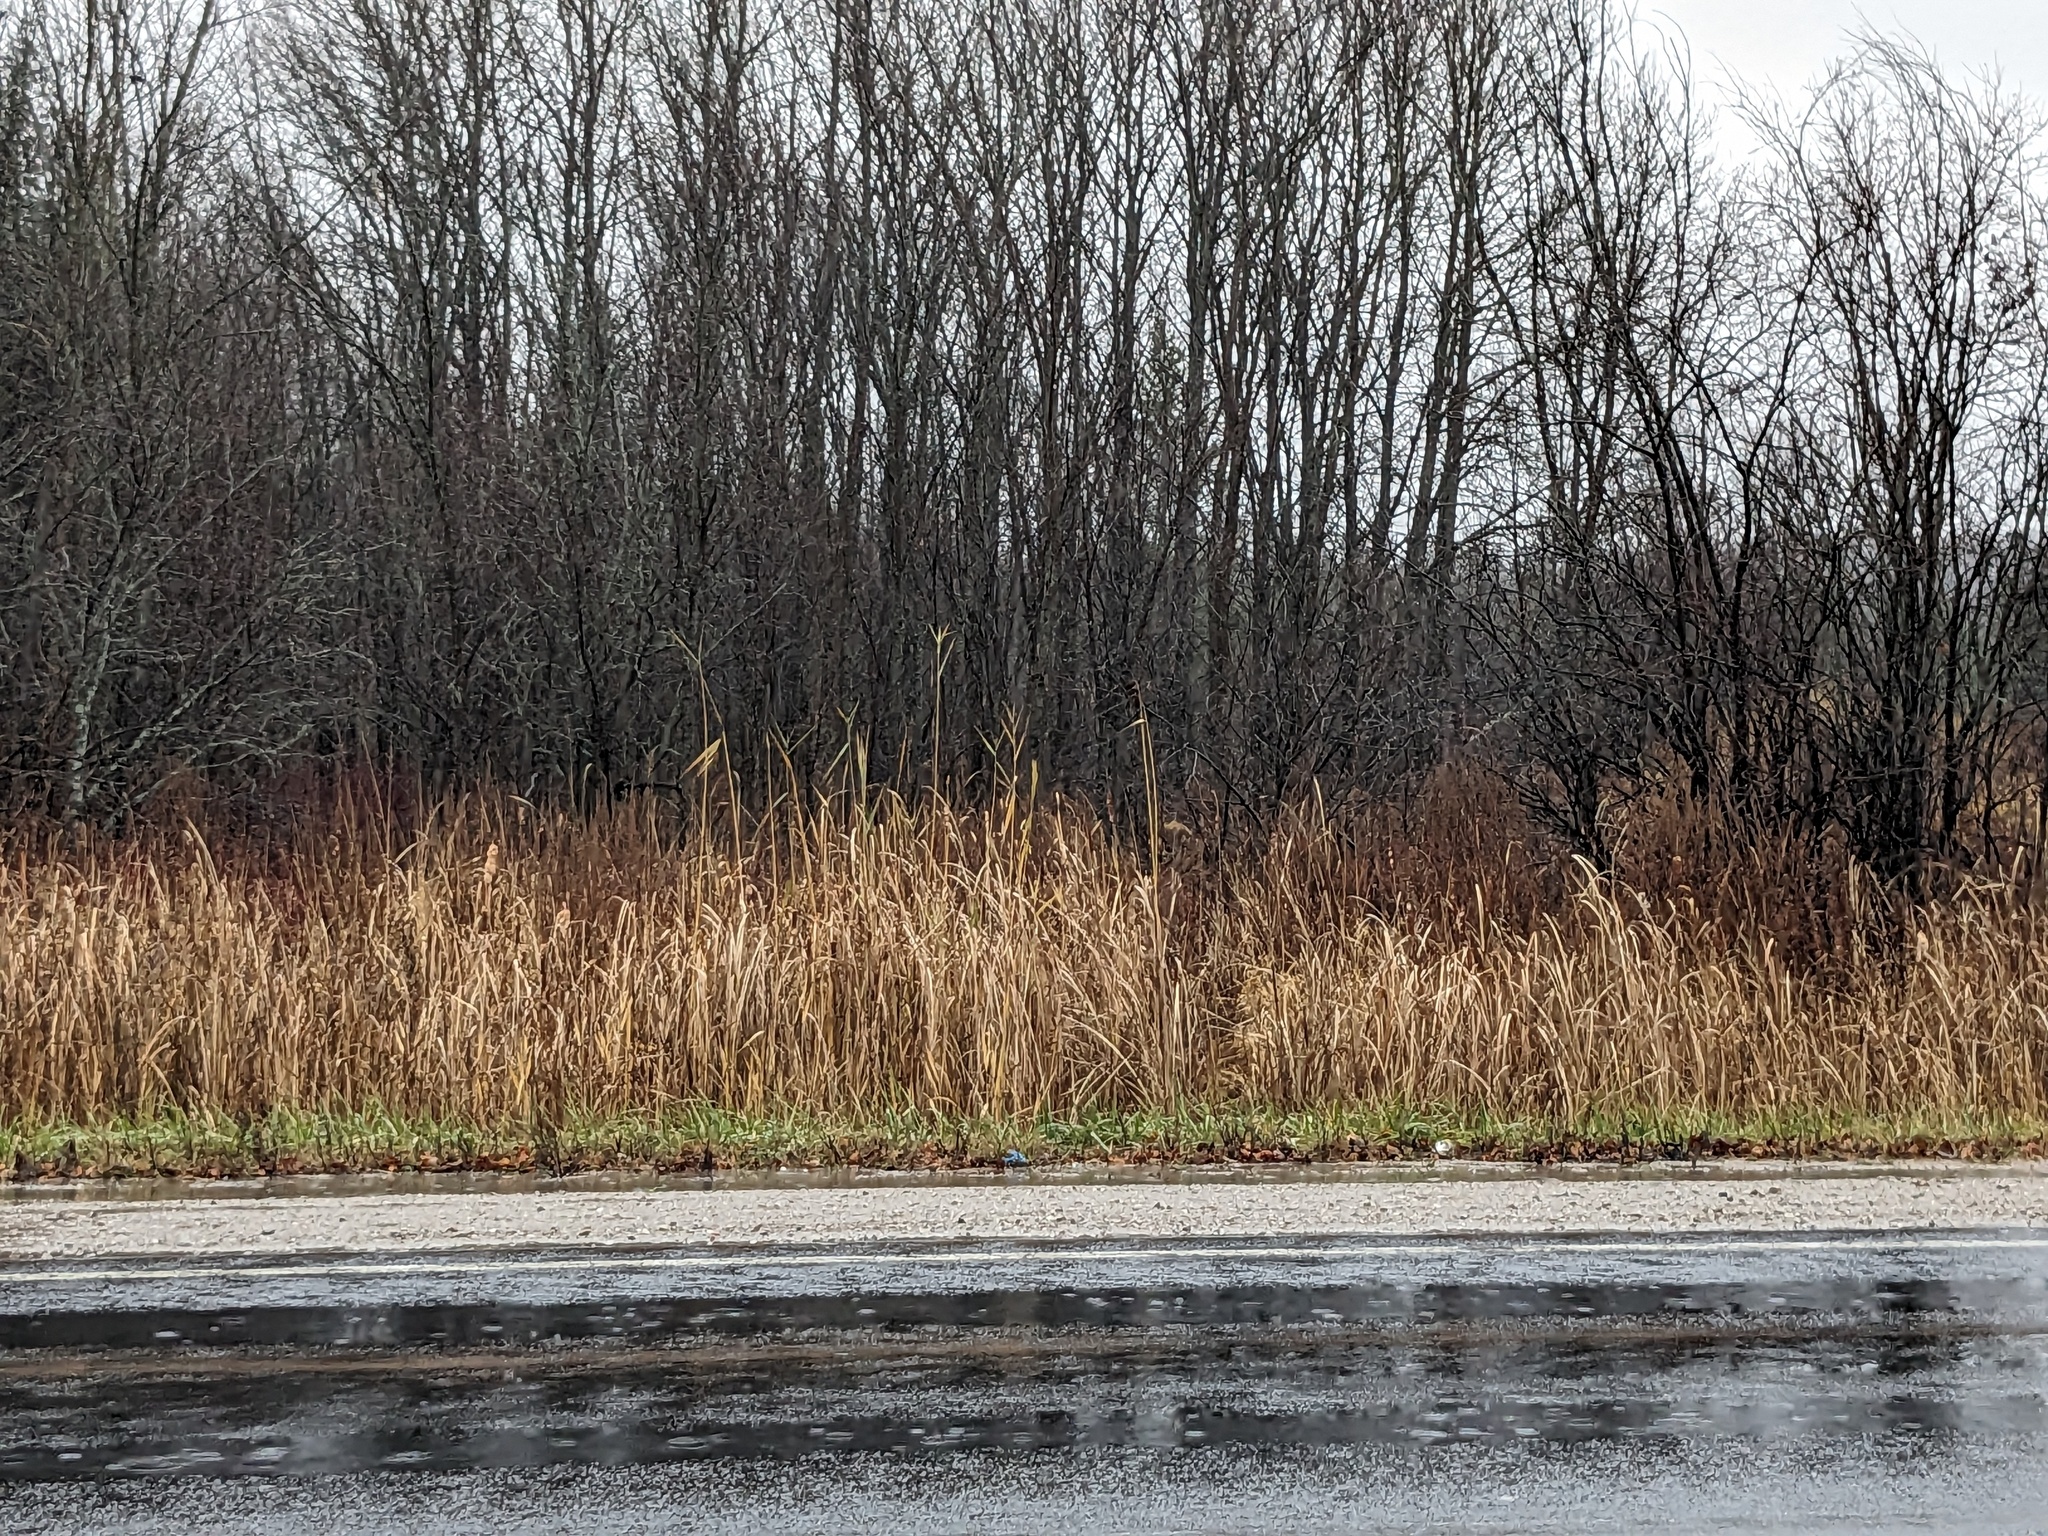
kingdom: Plantae
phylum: Tracheophyta
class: Liliopsida
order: Poales
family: Poaceae
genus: Phragmites
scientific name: Phragmites australis
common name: Common reed
